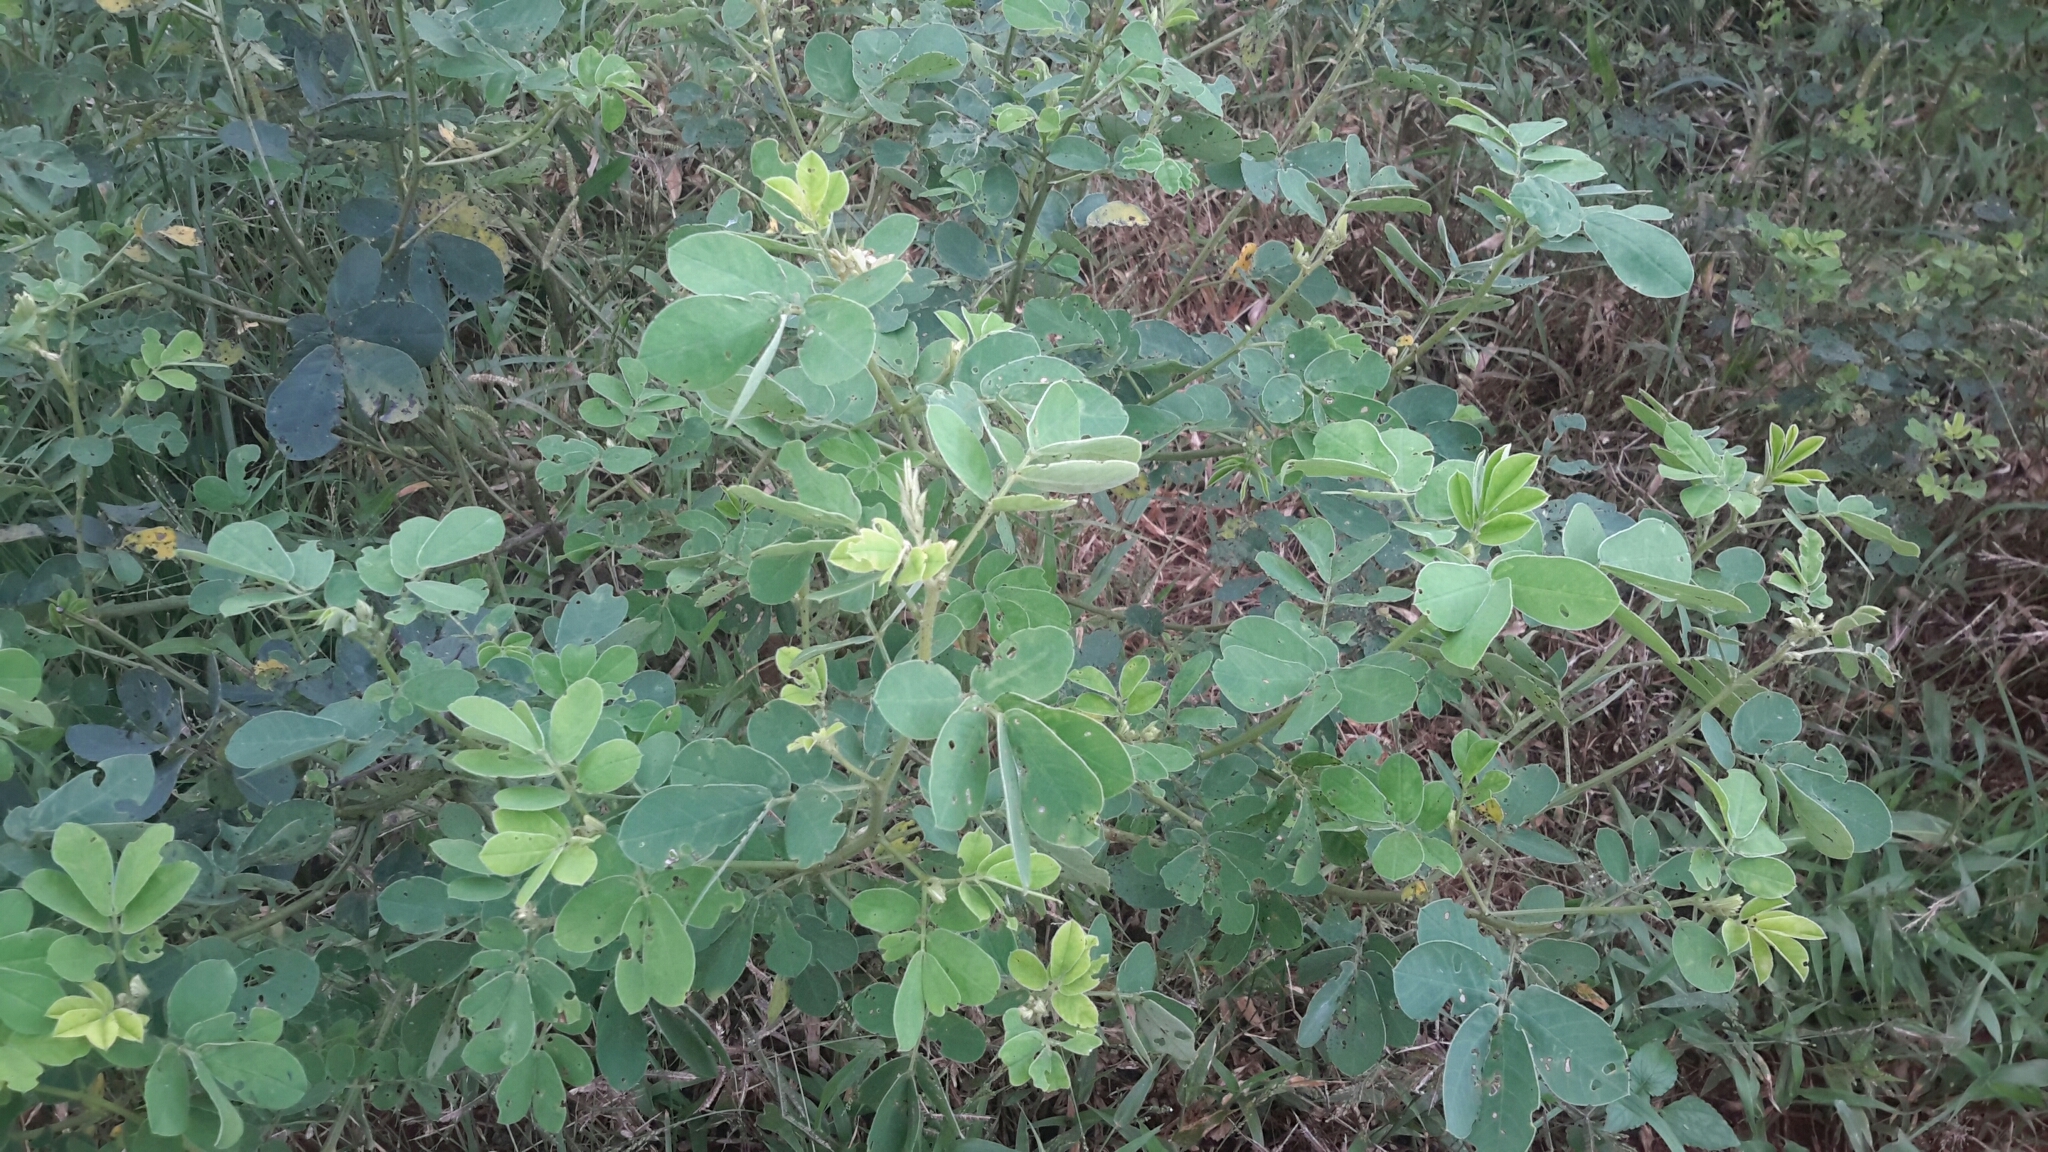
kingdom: Plantae
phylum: Tracheophyta
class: Magnoliopsida
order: Fabales
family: Fabaceae
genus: Senna
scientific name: Senna obtusifolia
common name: Java-bean
